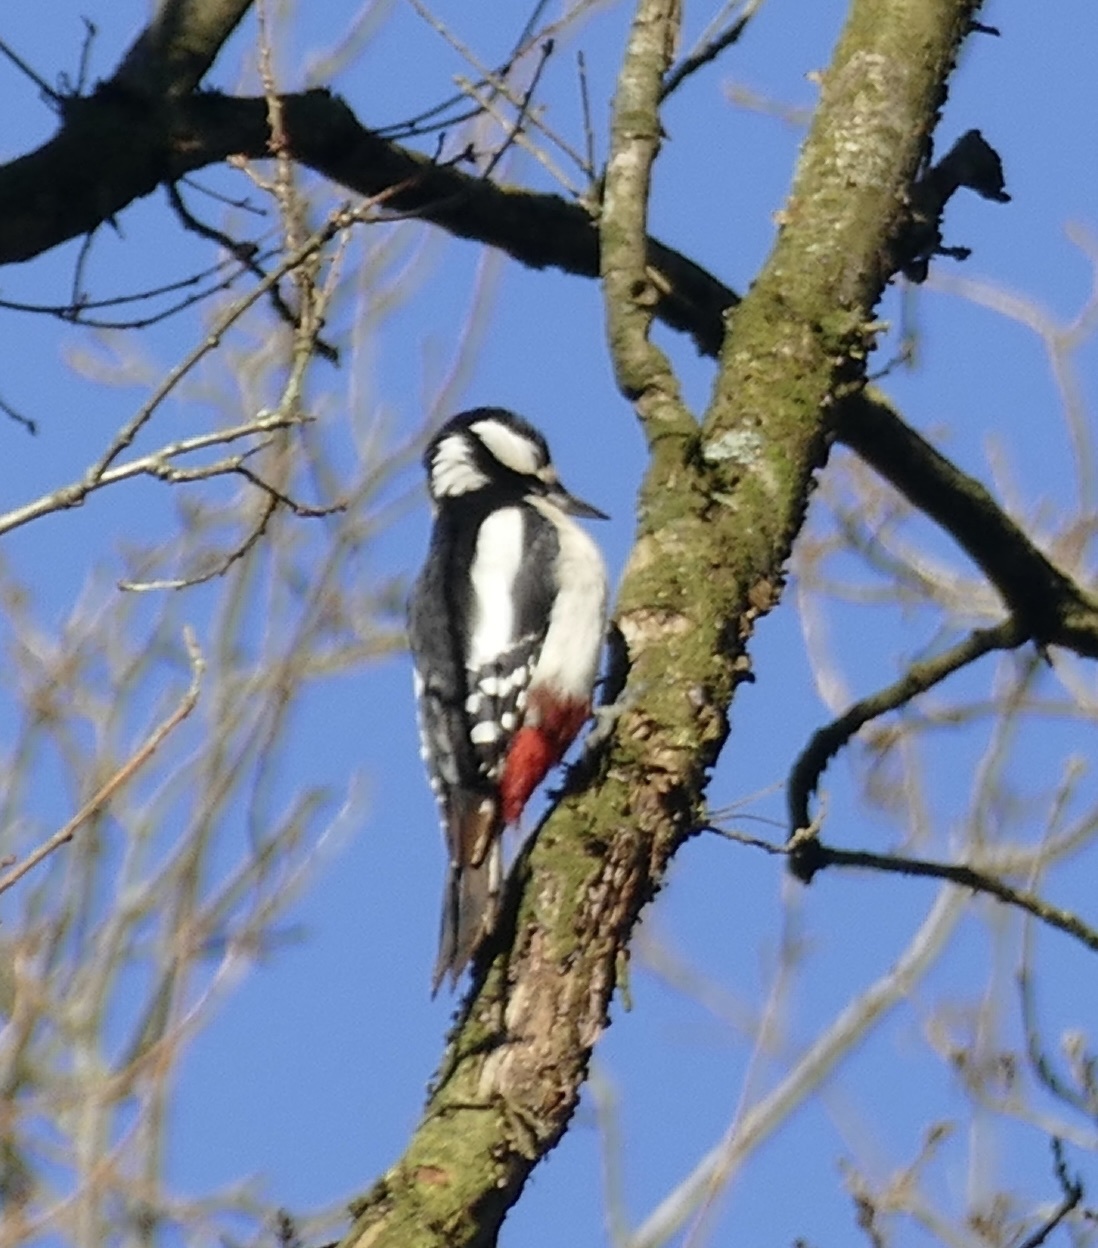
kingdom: Animalia
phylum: Chordata
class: Aves
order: Piciformes
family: Picidae
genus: Dendrocopos
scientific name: Dendrocopos major
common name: Great spotted woodpecker
